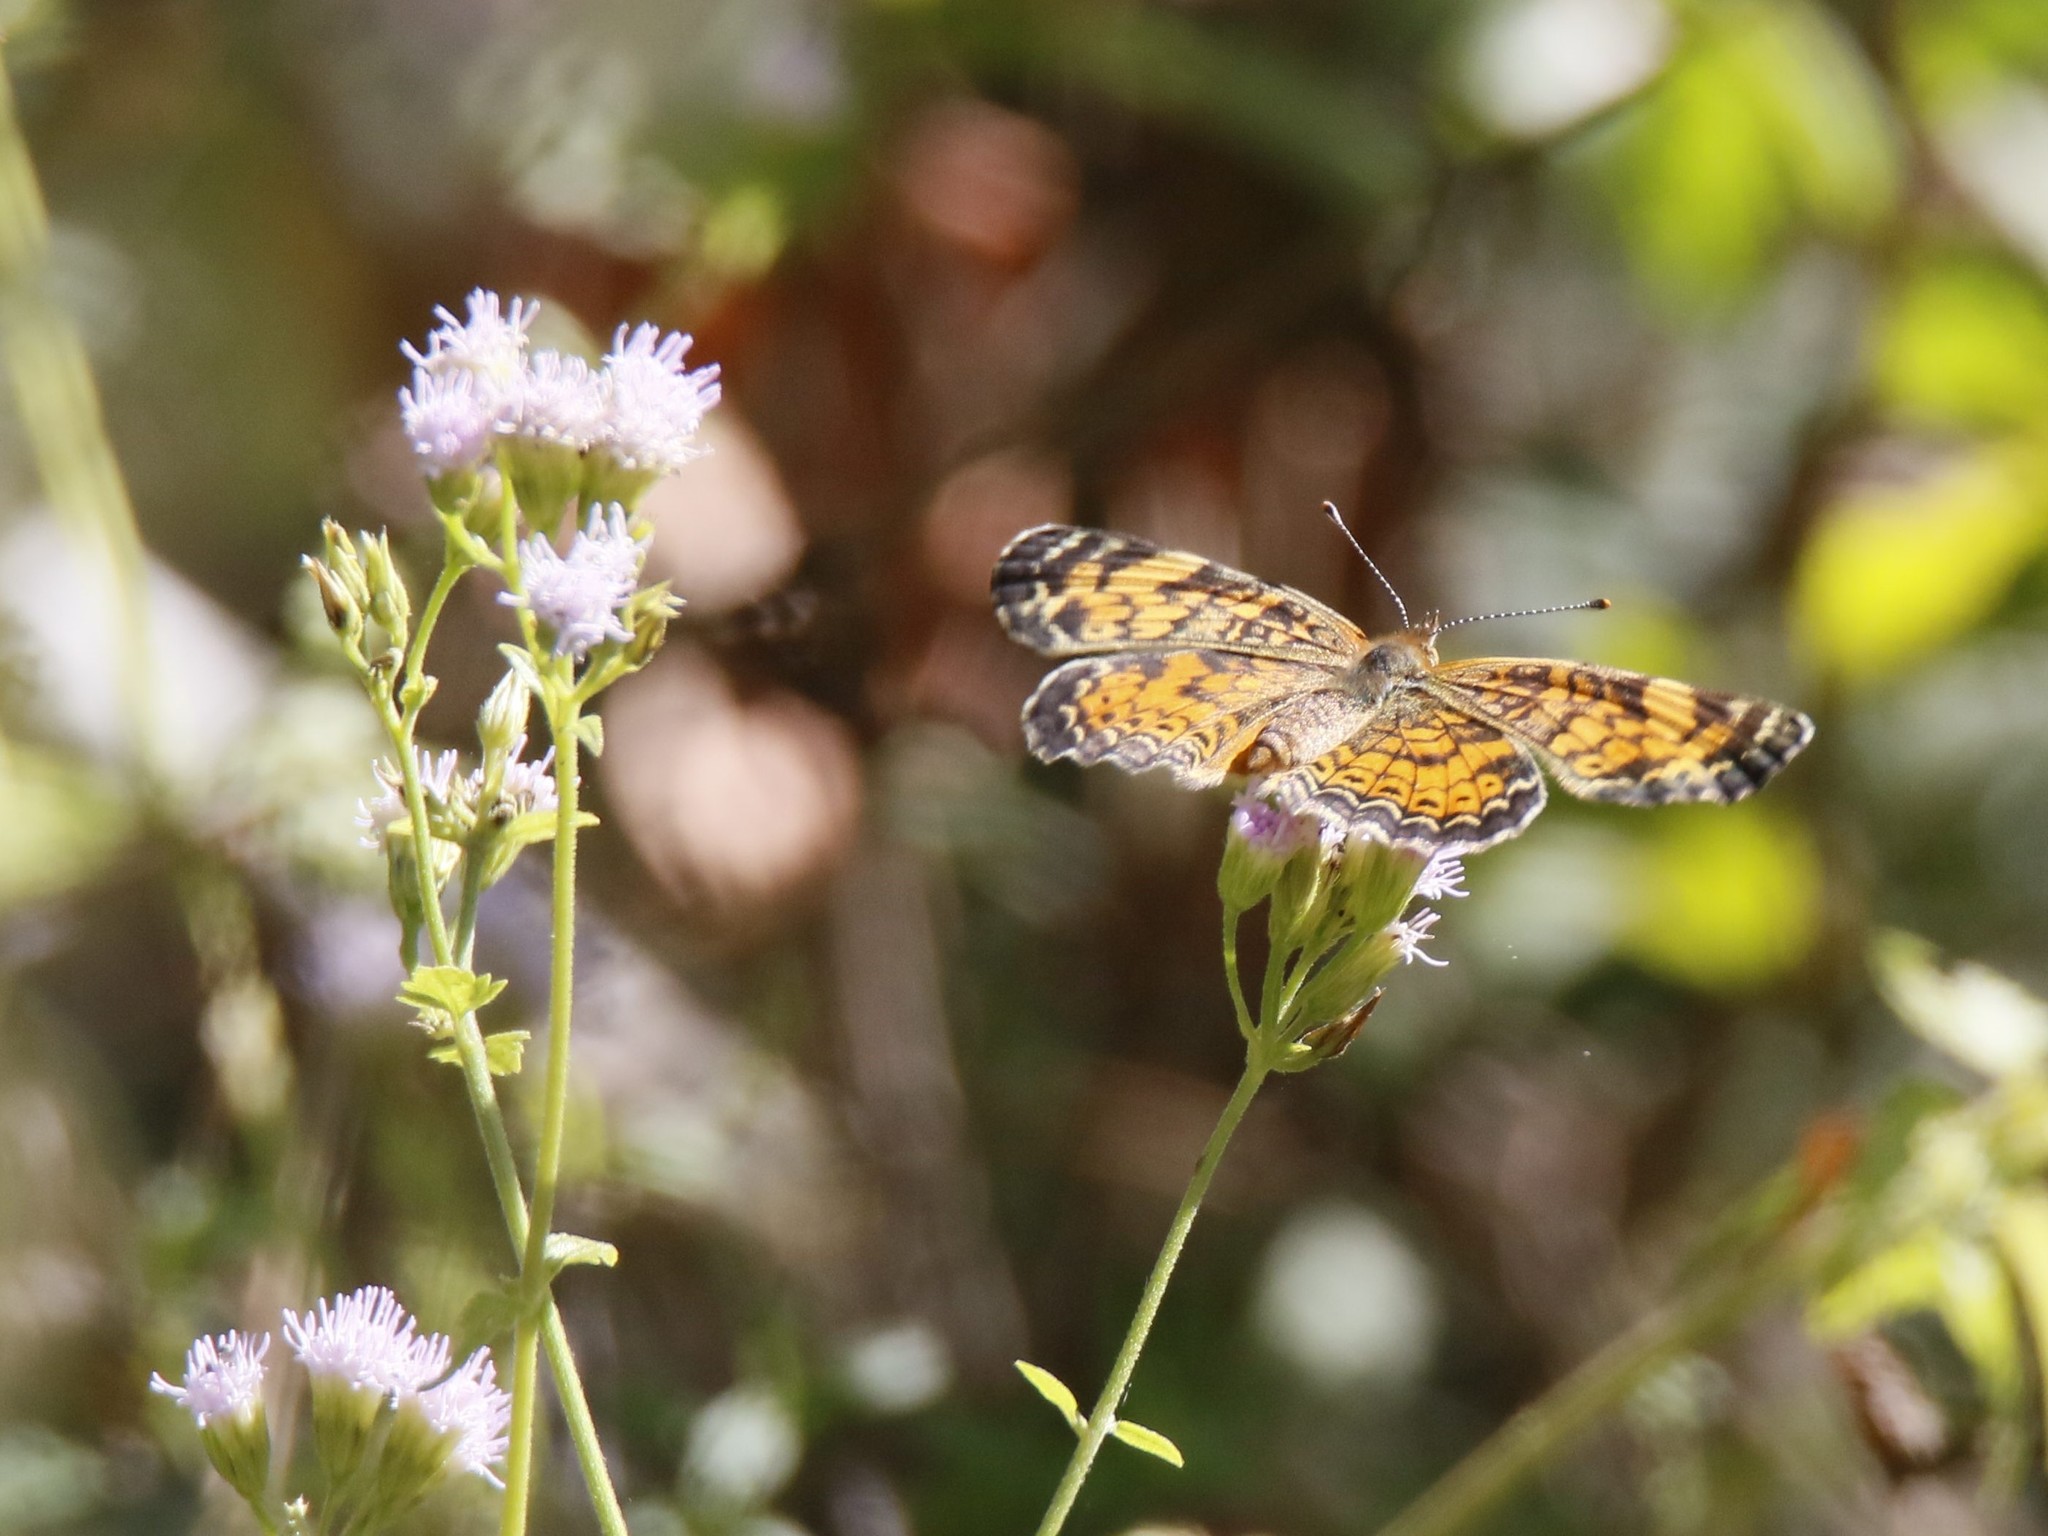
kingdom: Animalia
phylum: Arthropoda
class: Insecta
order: Lepidoptera
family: Nymphalidae
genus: Phyciodes
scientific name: Phyciodes tharos
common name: Pearl crescent
